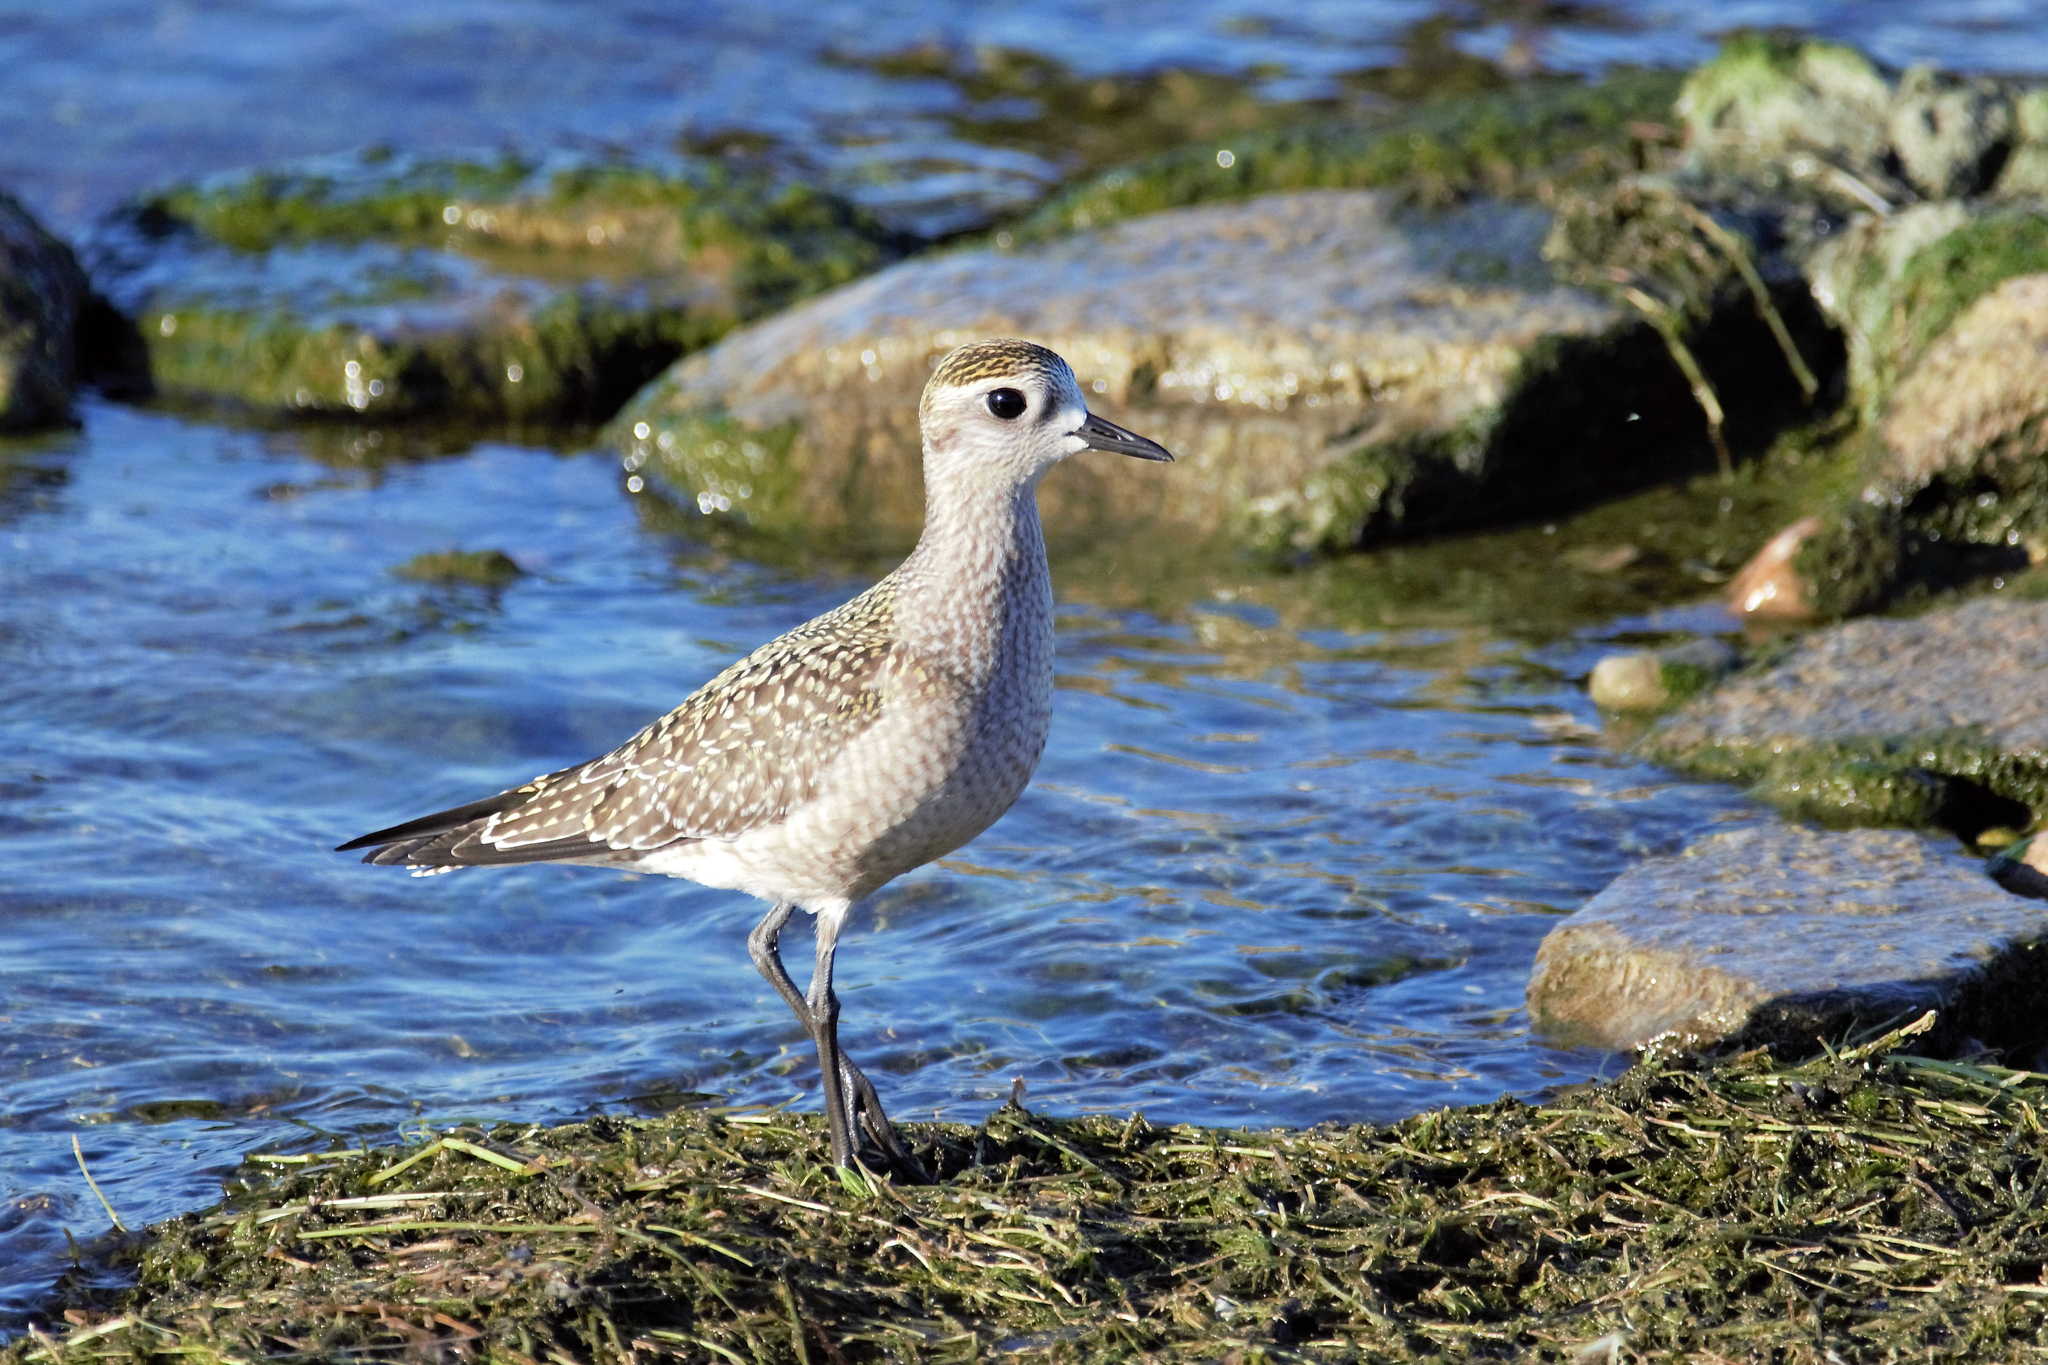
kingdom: Animalia
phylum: Chordata
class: Aves
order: Charadriiformes
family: Charadriidae
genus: Pluvialis
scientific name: Pluvialis dominica
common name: American golden plover
